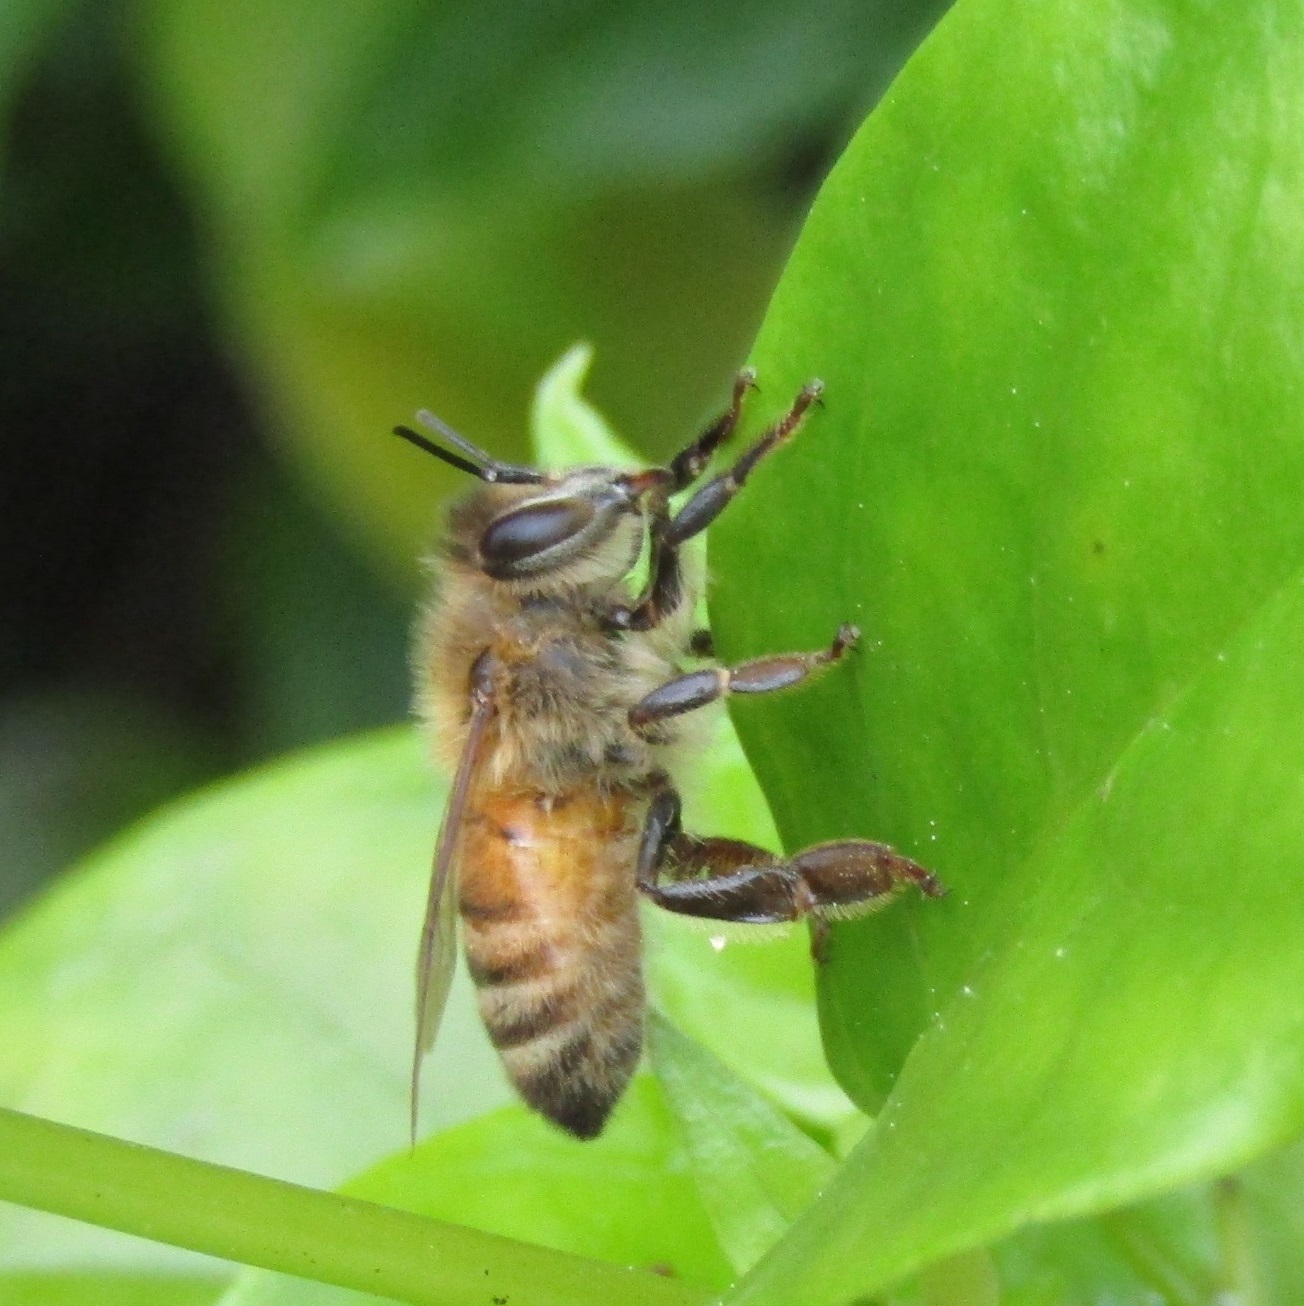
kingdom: Animalia
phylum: Arthropoda
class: Insecta
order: Hymenoptera
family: Apidae
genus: Apis
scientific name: Apis mellifera
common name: Honey bee
